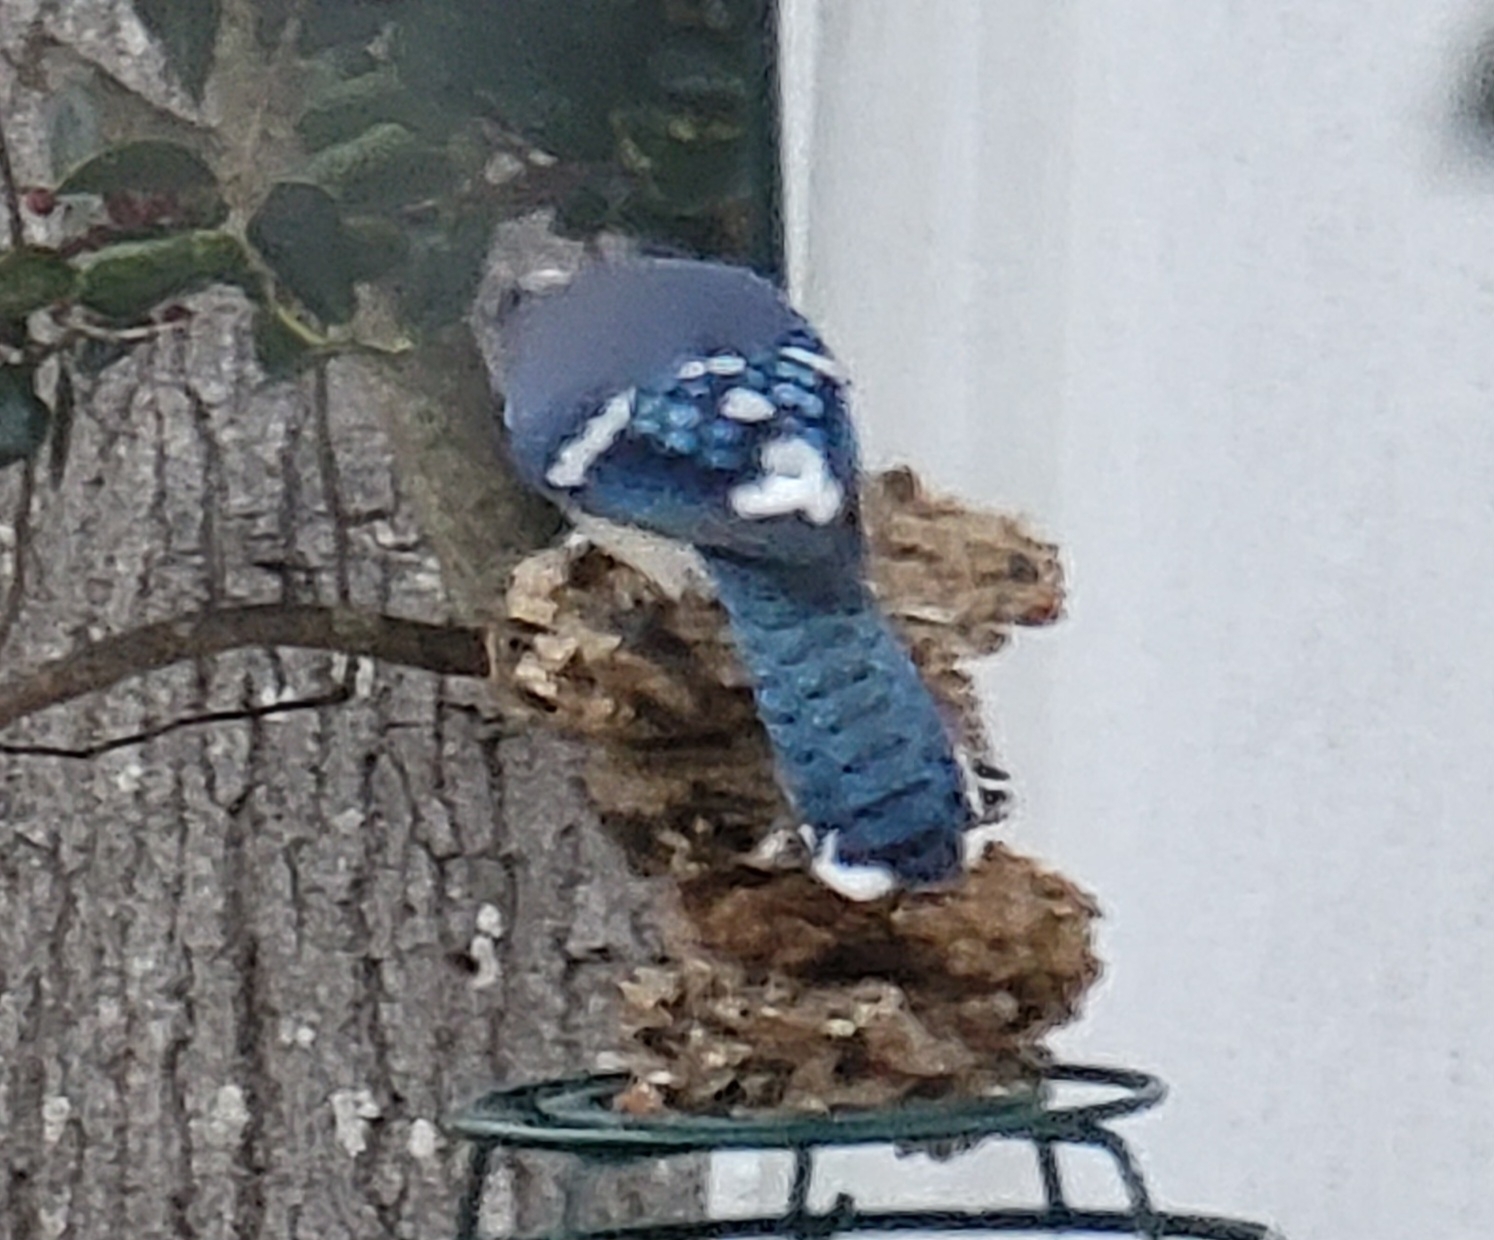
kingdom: Animalia
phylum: Chordata
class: Aves
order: Passeriformes
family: Corvidae
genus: Cyanocitta
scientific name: Cyanocitta cristata
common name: Blue jay
